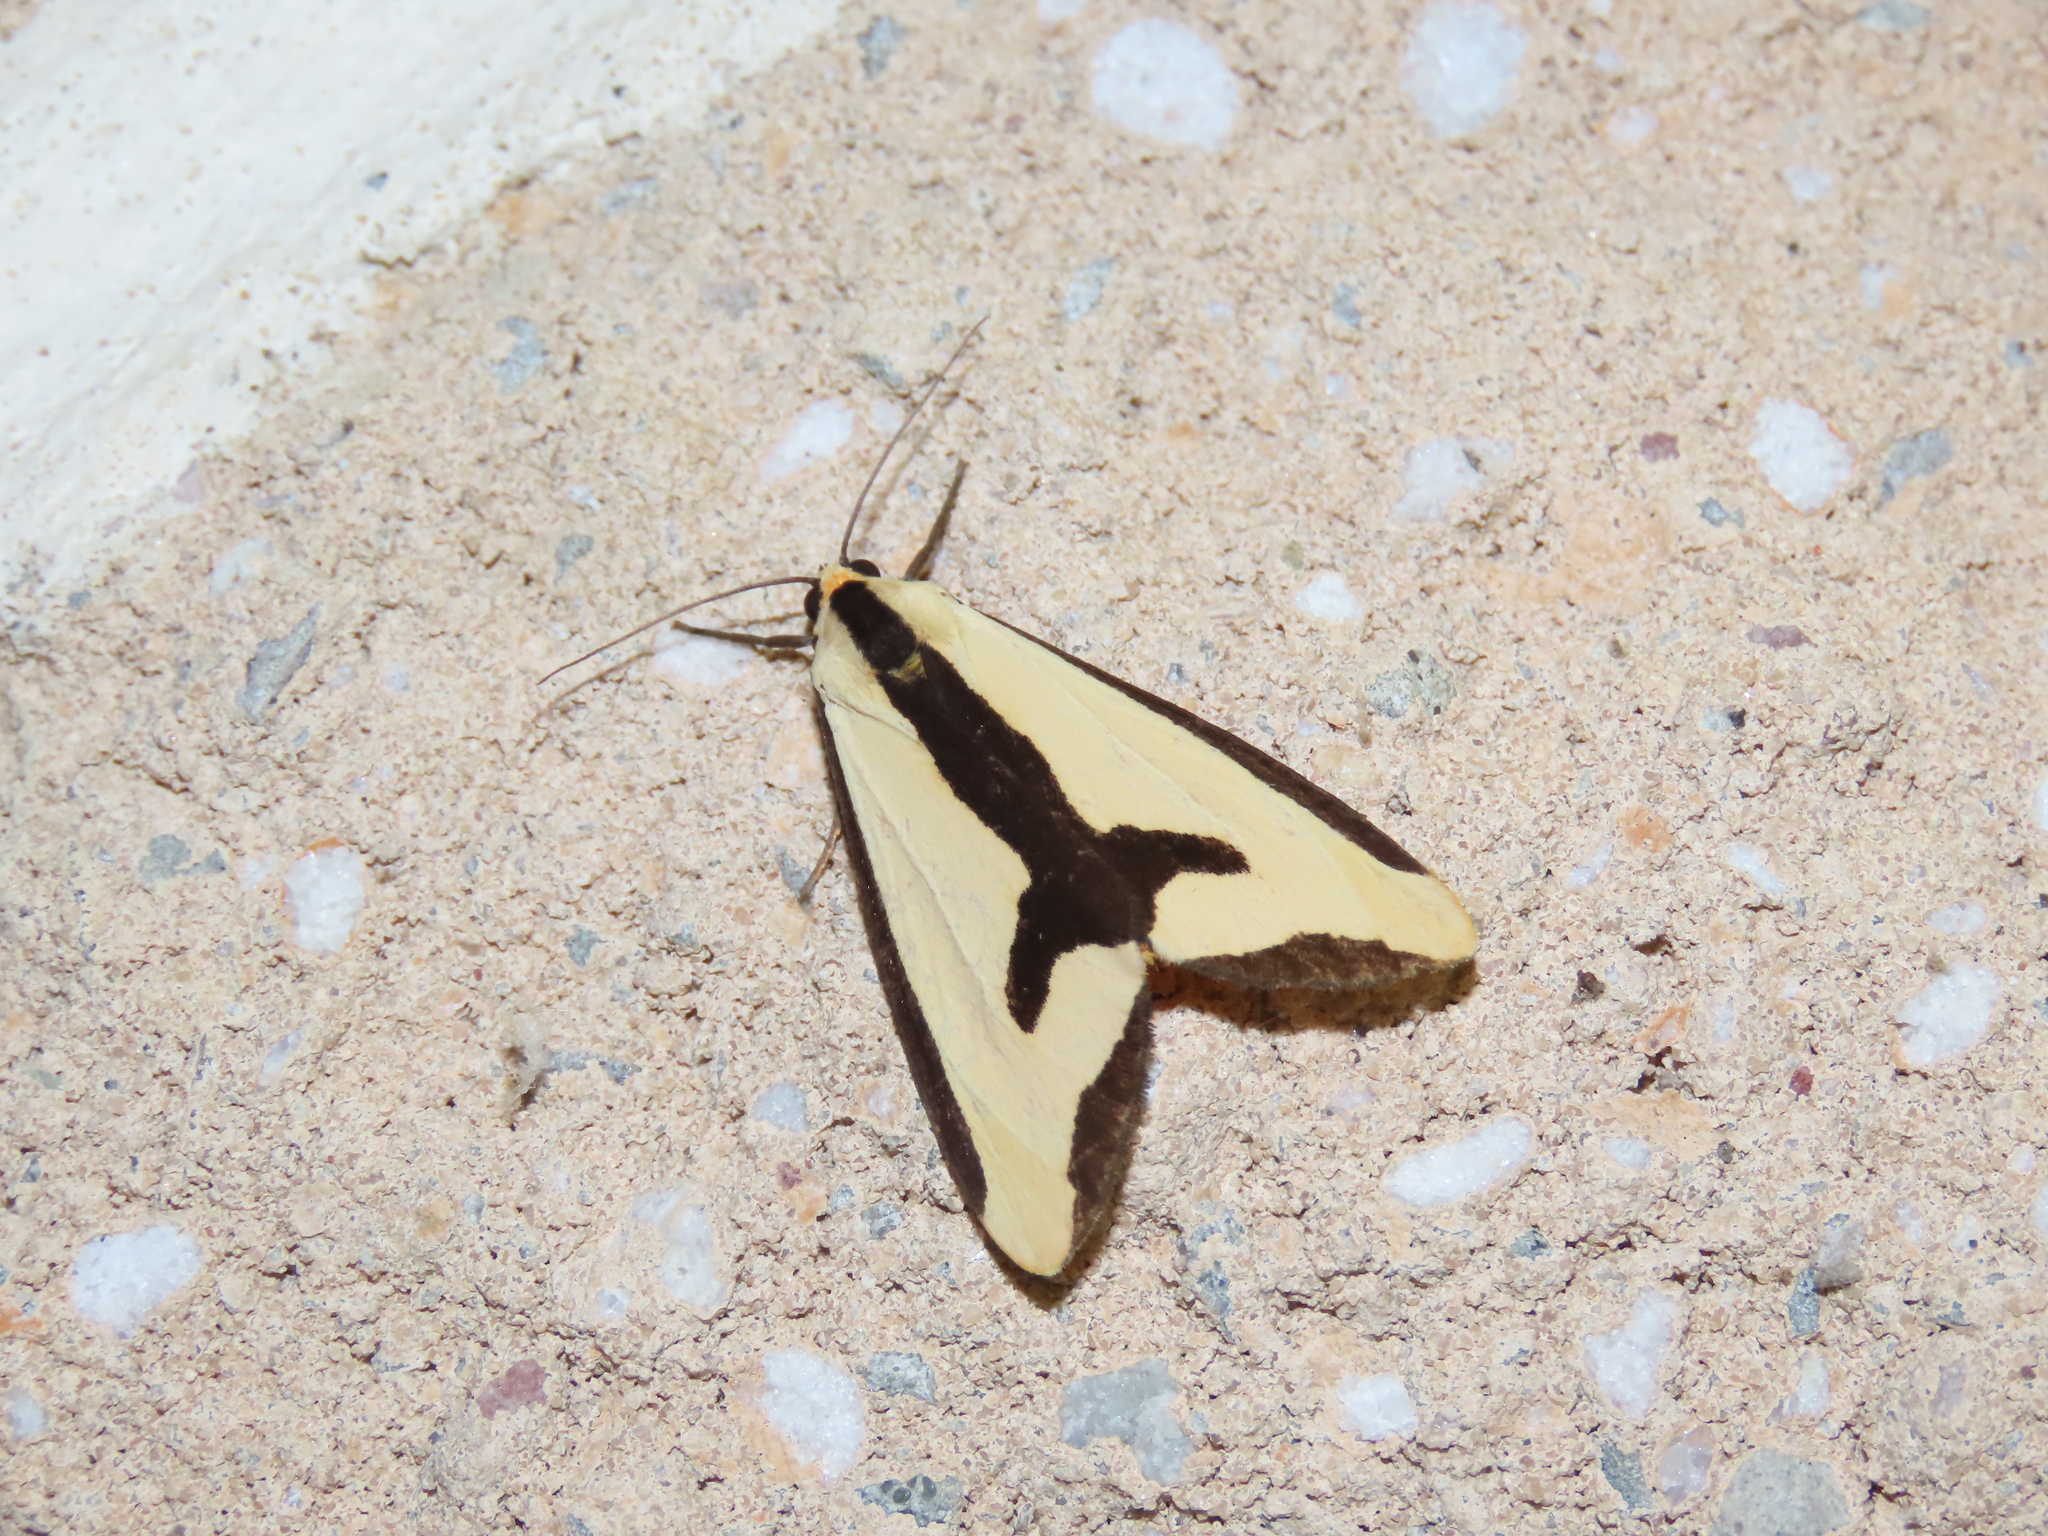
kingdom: Animalia
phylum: Arthropoda
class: Insecta
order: Lepidoptera
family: Erebidae
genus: Haploa
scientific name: Haploa clymene
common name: Clymene moth
